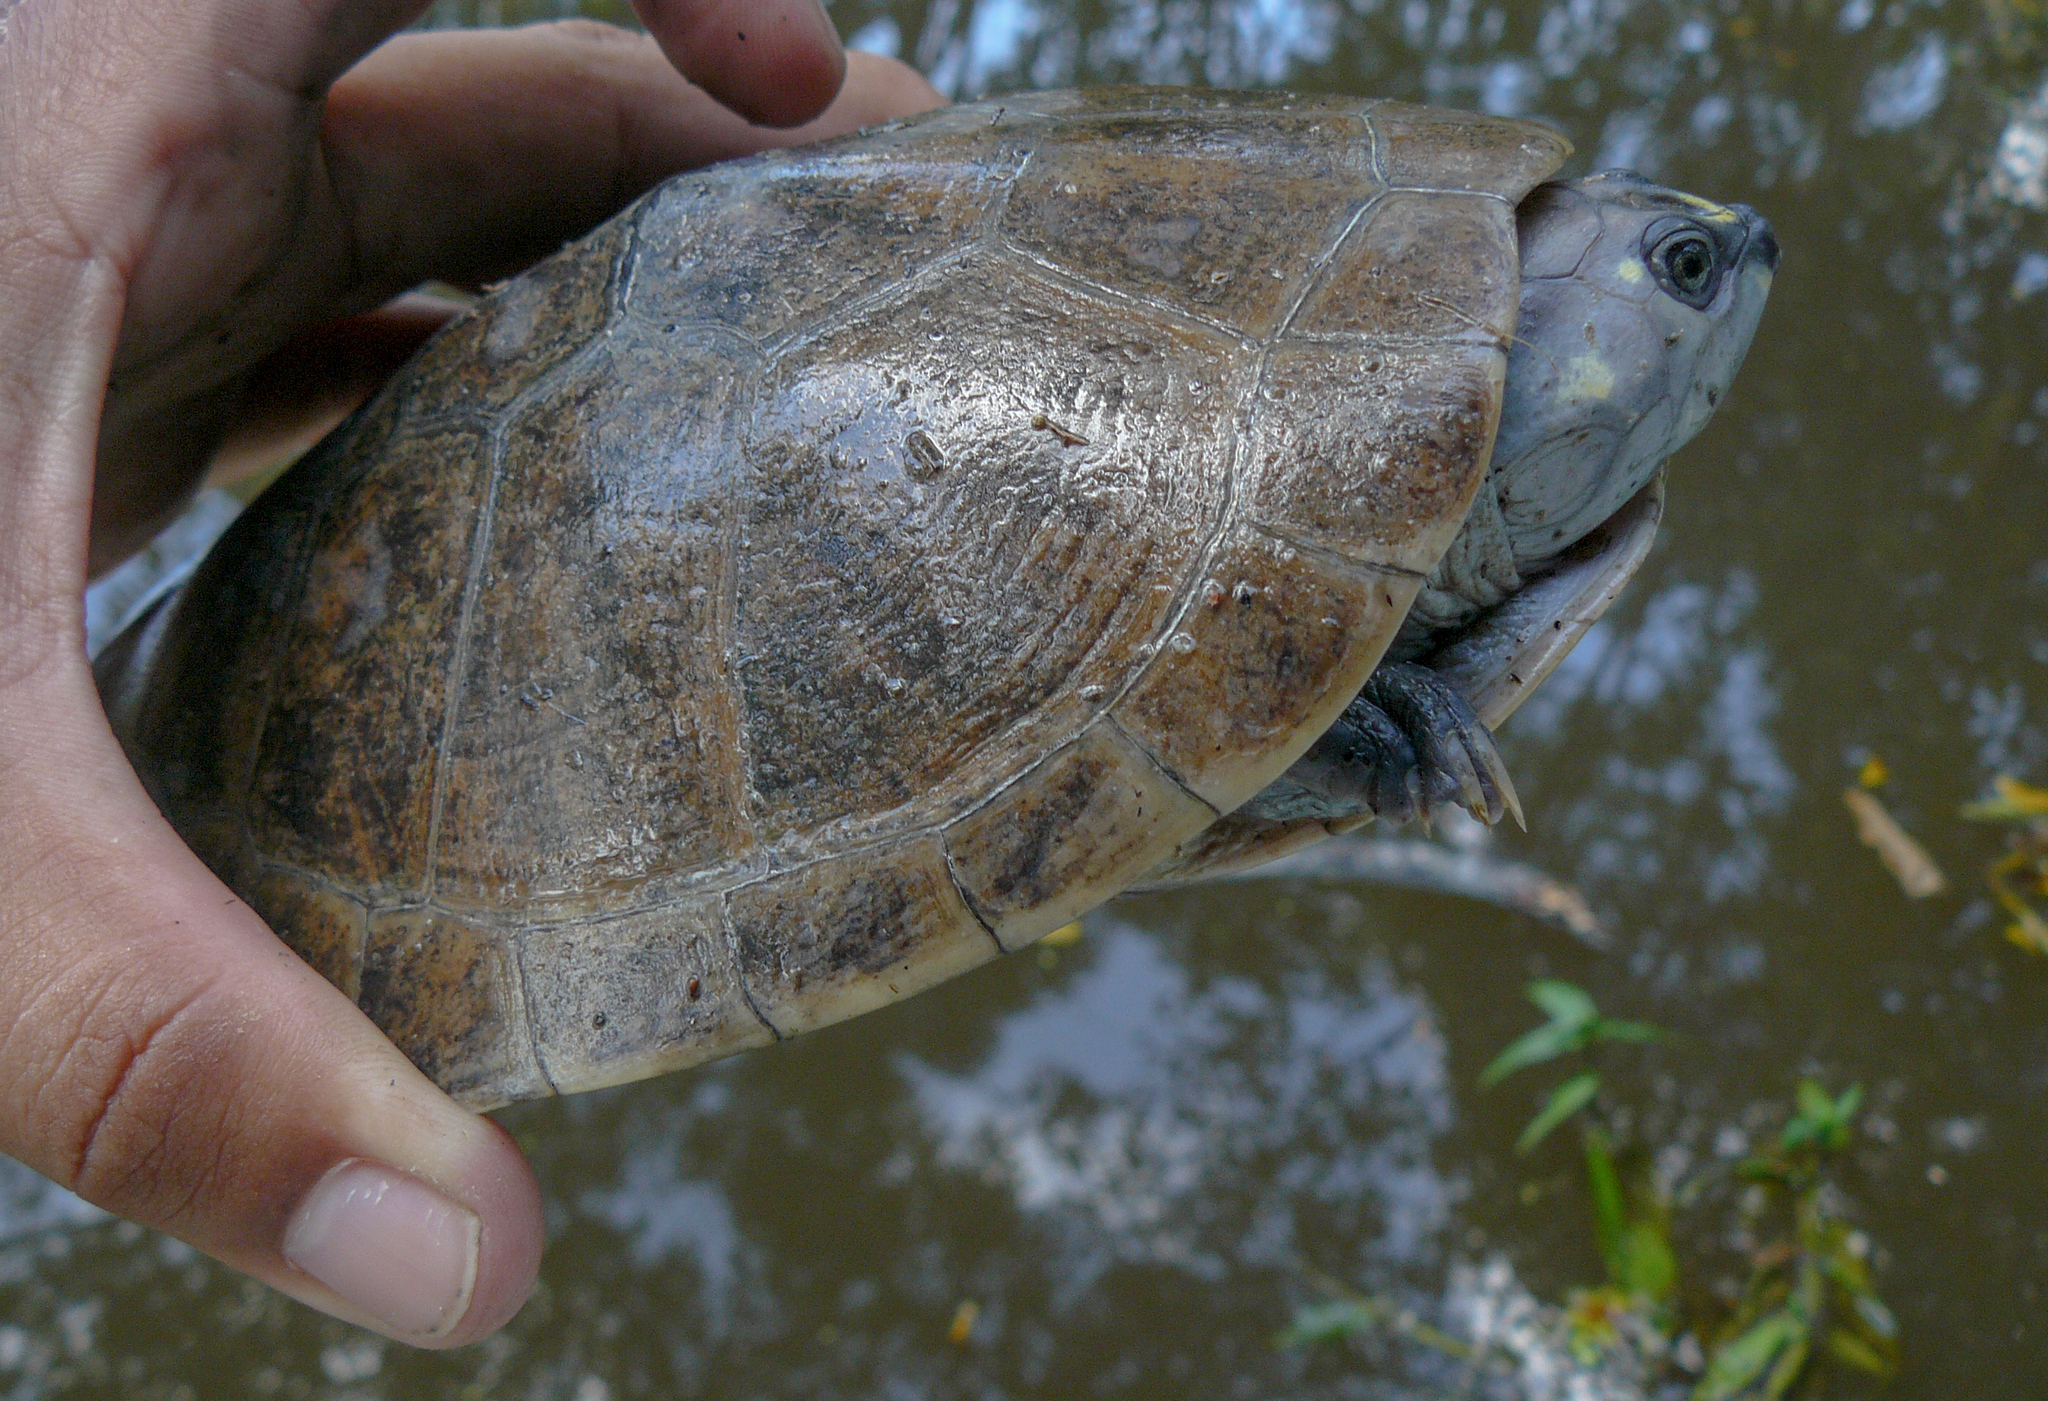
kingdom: Animalia
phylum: Chordata
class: Testudines
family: Podocnemididae
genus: Podocnemis
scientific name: Podocnemis sextuberculata
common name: Six-tubercled amazon river turtle
